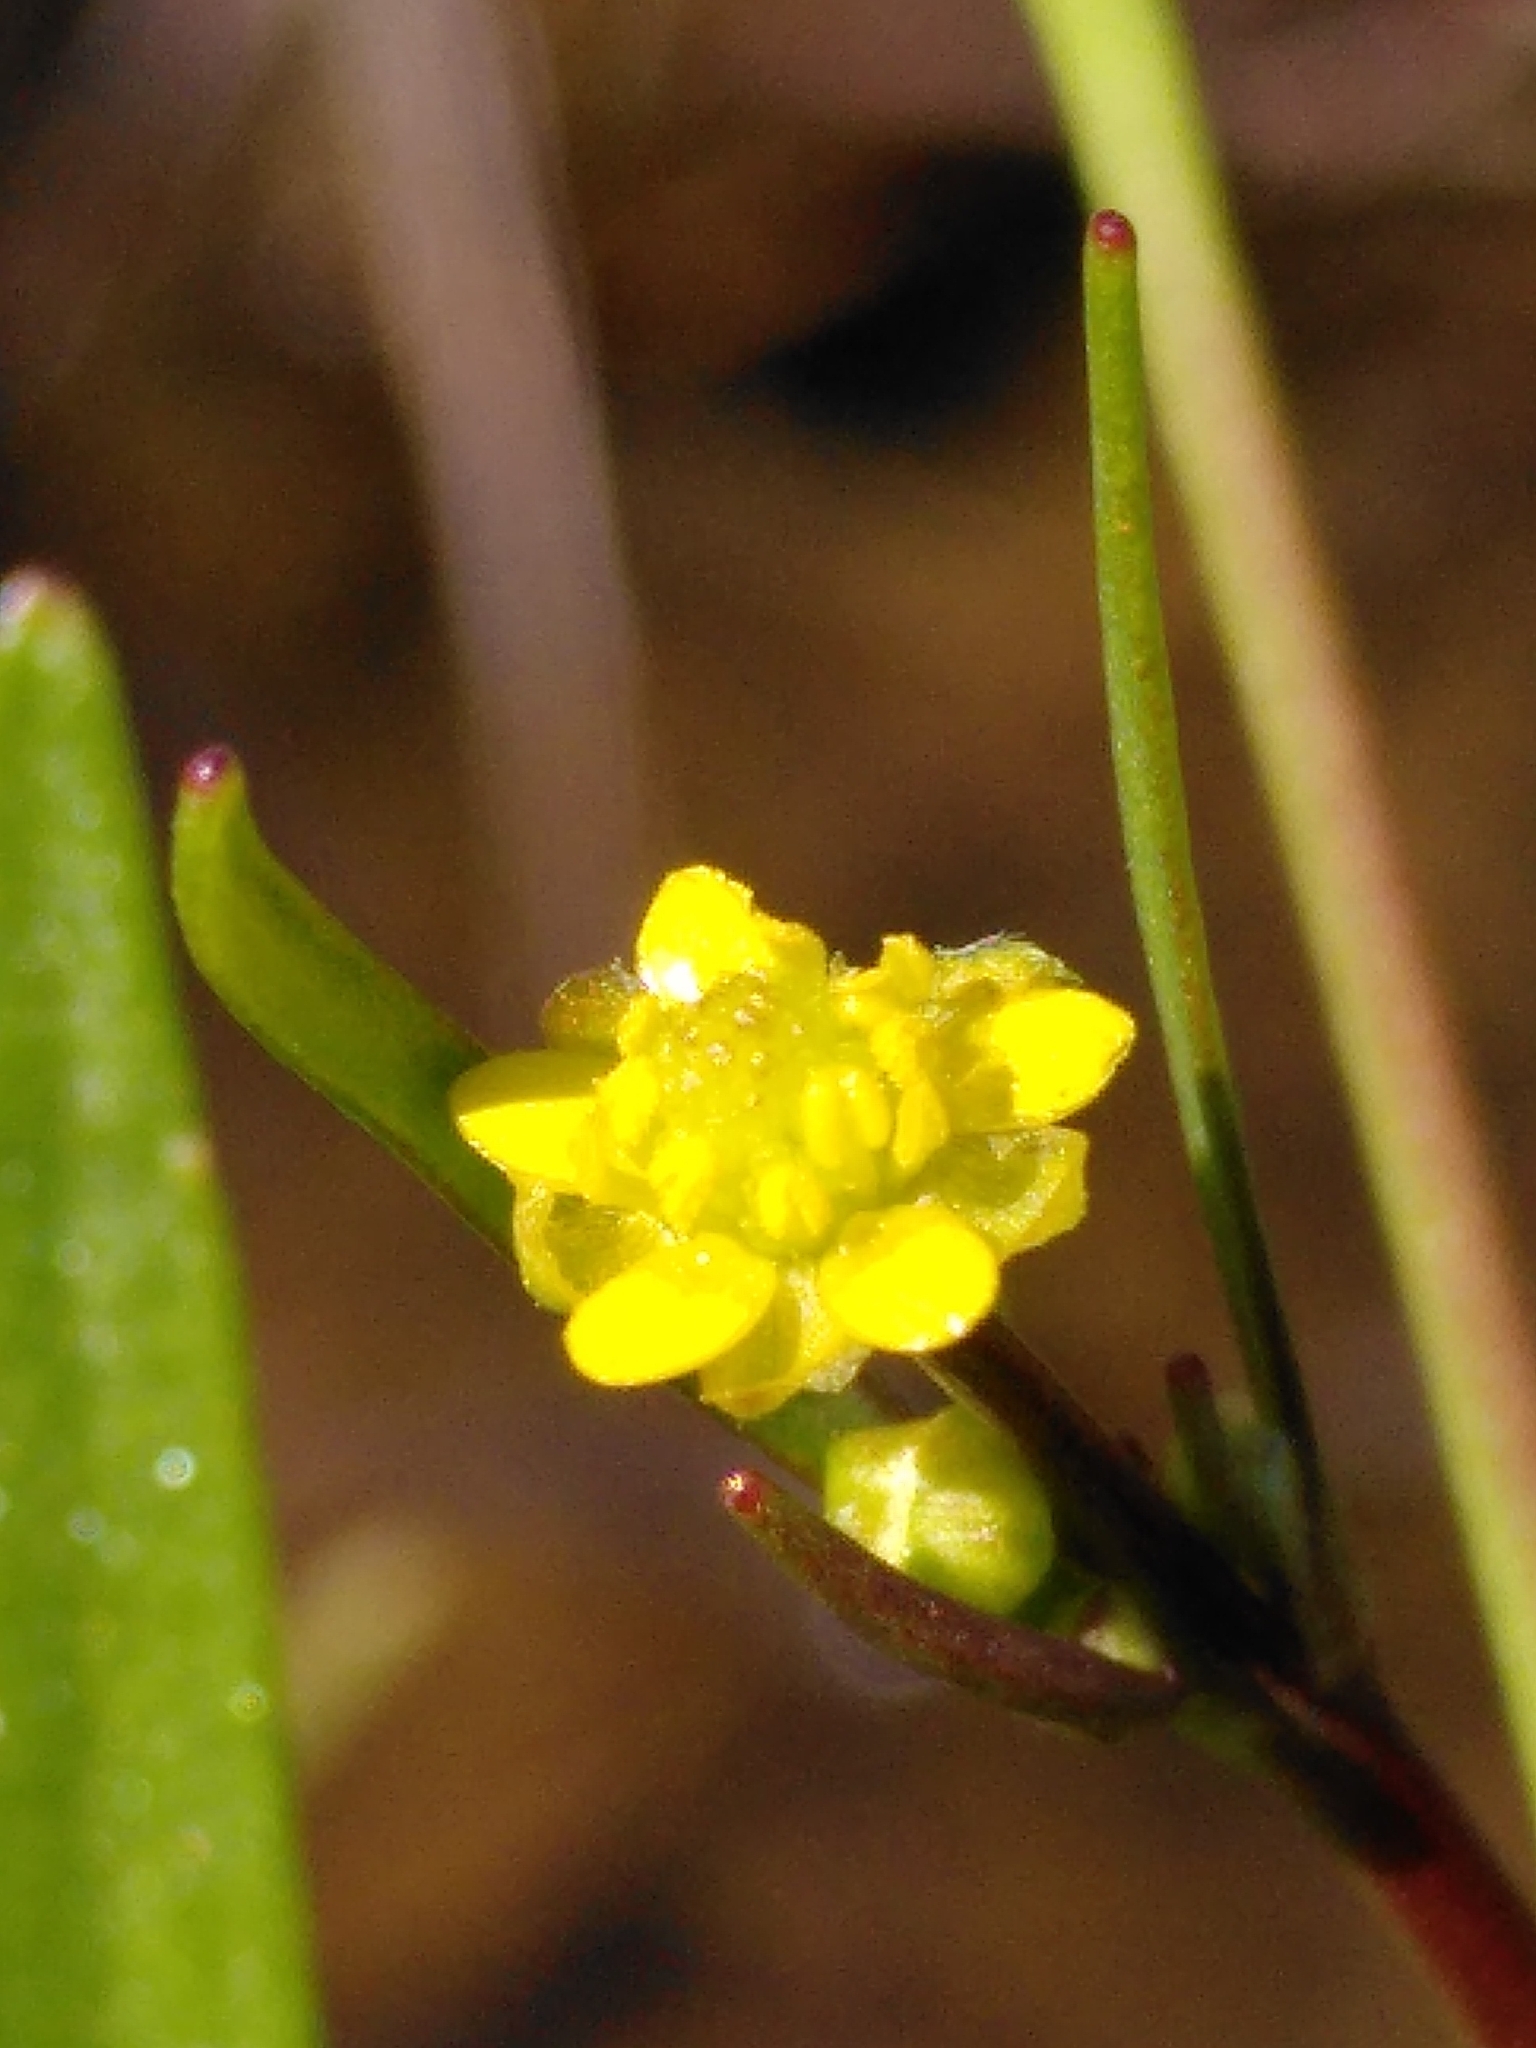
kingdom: Plantae
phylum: Tracheophyta
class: Magnoliopsida
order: Ranunculales
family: Ranunculaceae
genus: Ranunculus
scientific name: Ranunculus revelierei
